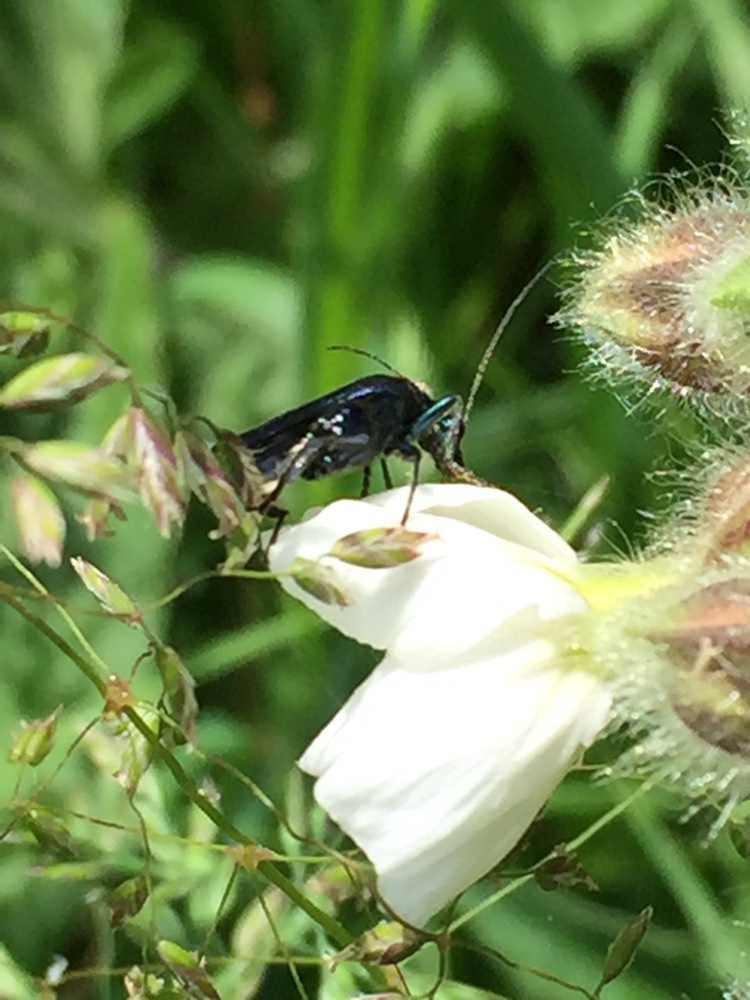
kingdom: Animalia
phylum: Arthropoda
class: Insecta
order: Coleoptera
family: Oedemeridae
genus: Oedemera
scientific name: Oedemera nobilis
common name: Swollen-thighed beetle
